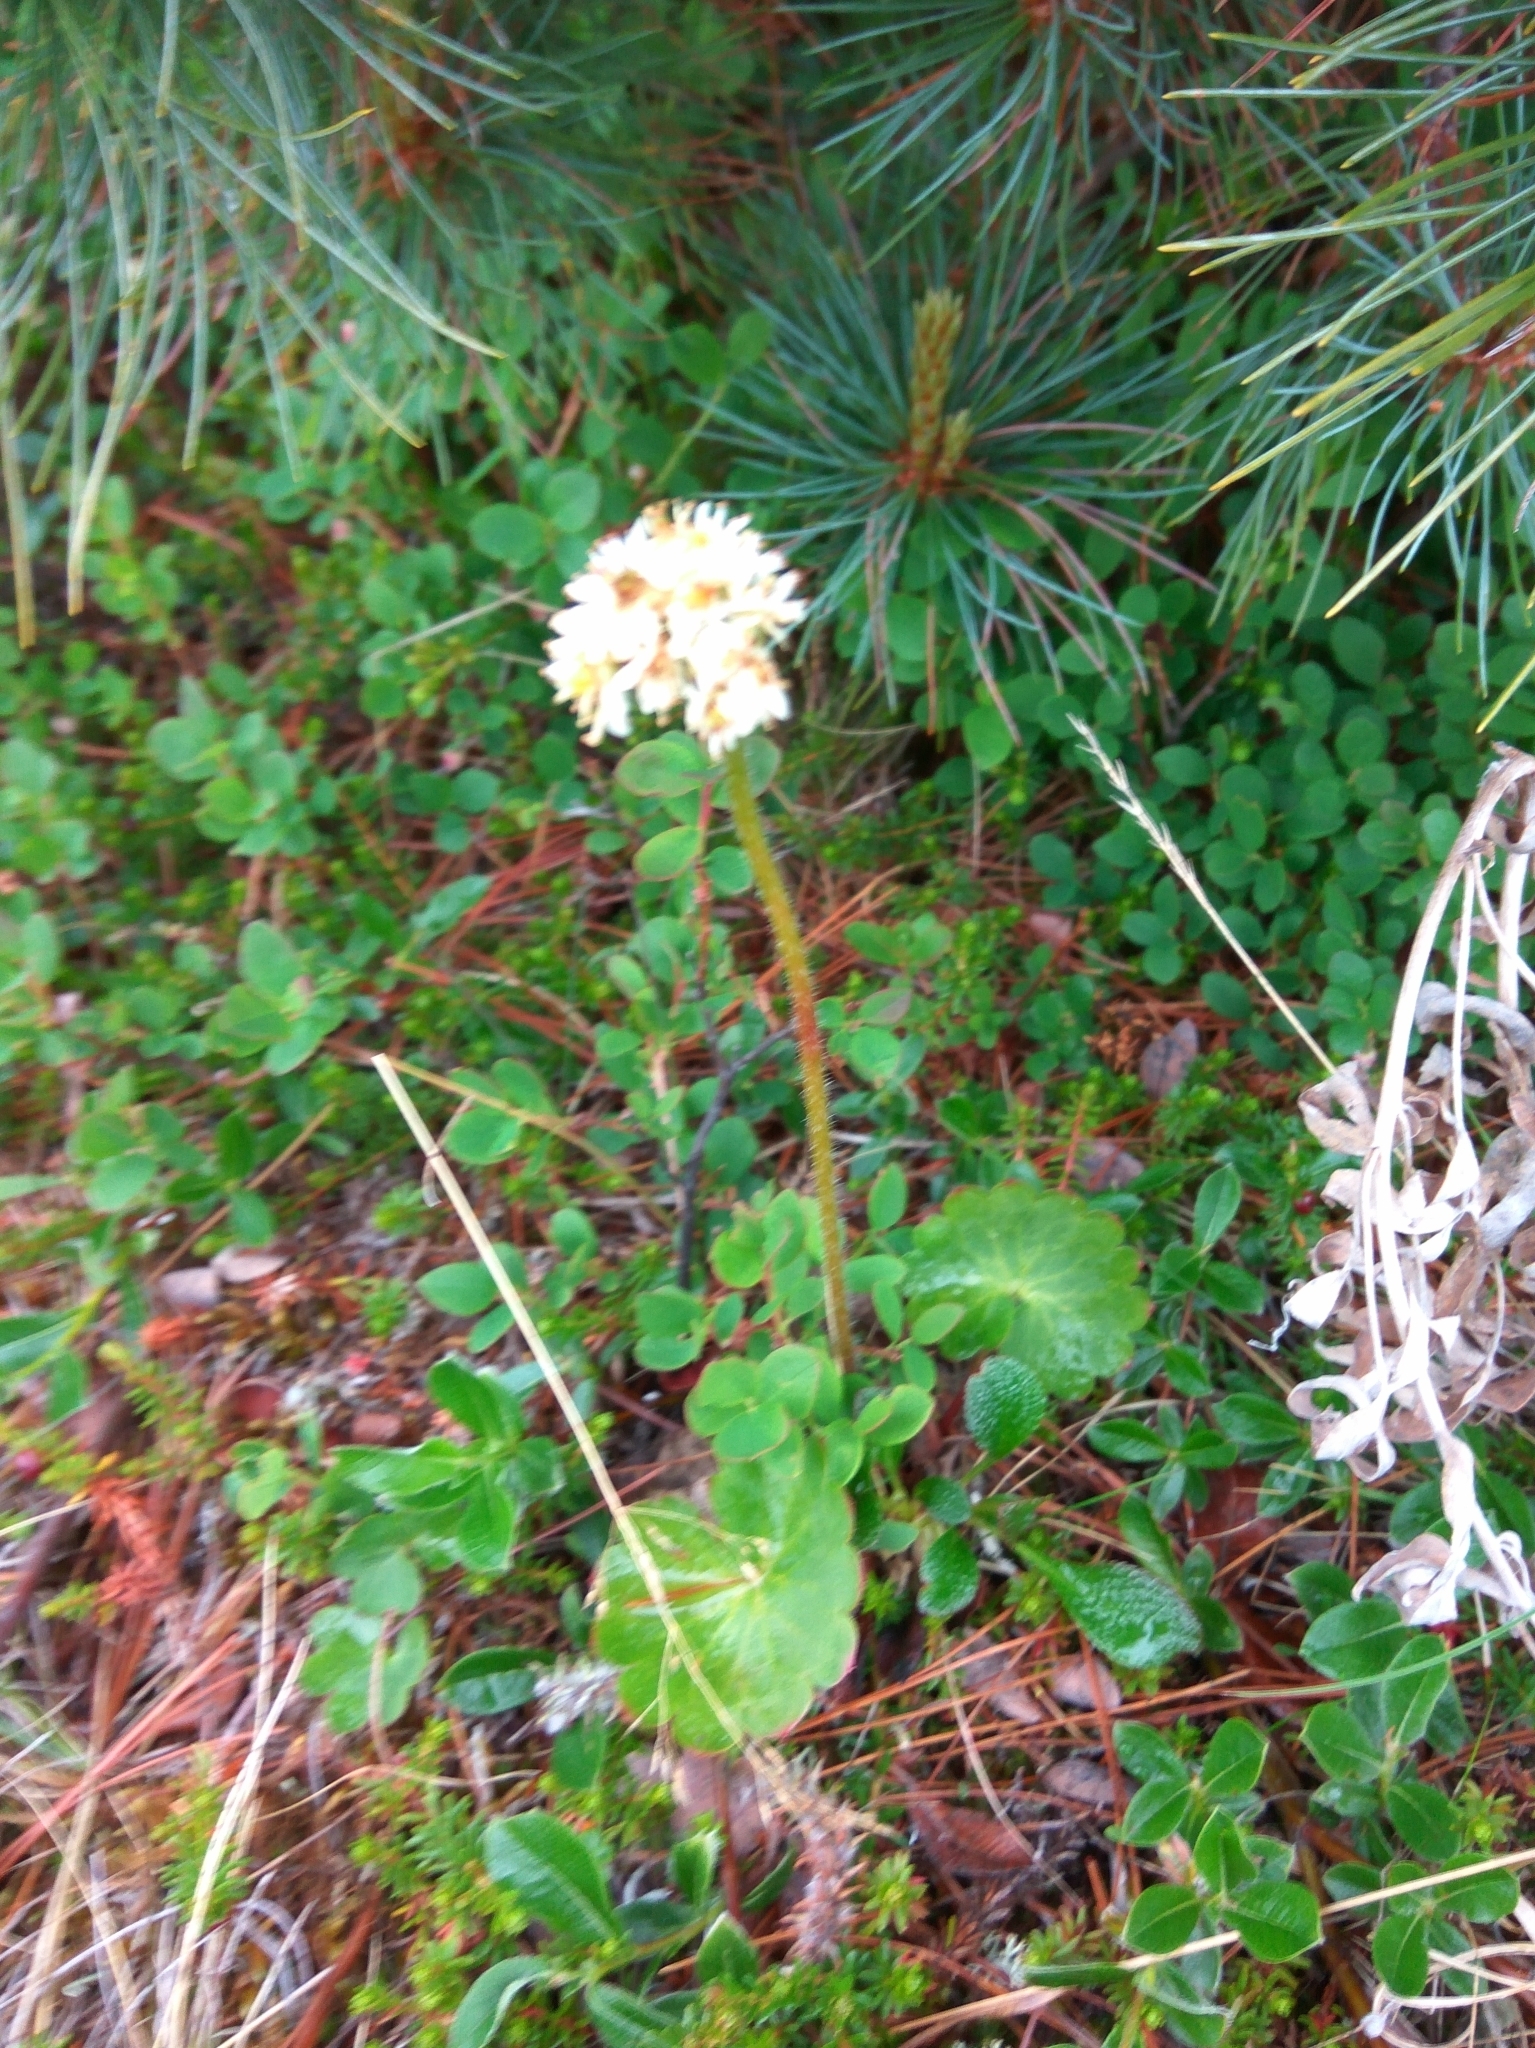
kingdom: Plantae
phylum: Tracheophyta
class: Magnoliopsida
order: Saxifragales
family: Saxifragaceae
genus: Micranthes
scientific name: Micranthes nelsoniana
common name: Nelson's saxifrage
